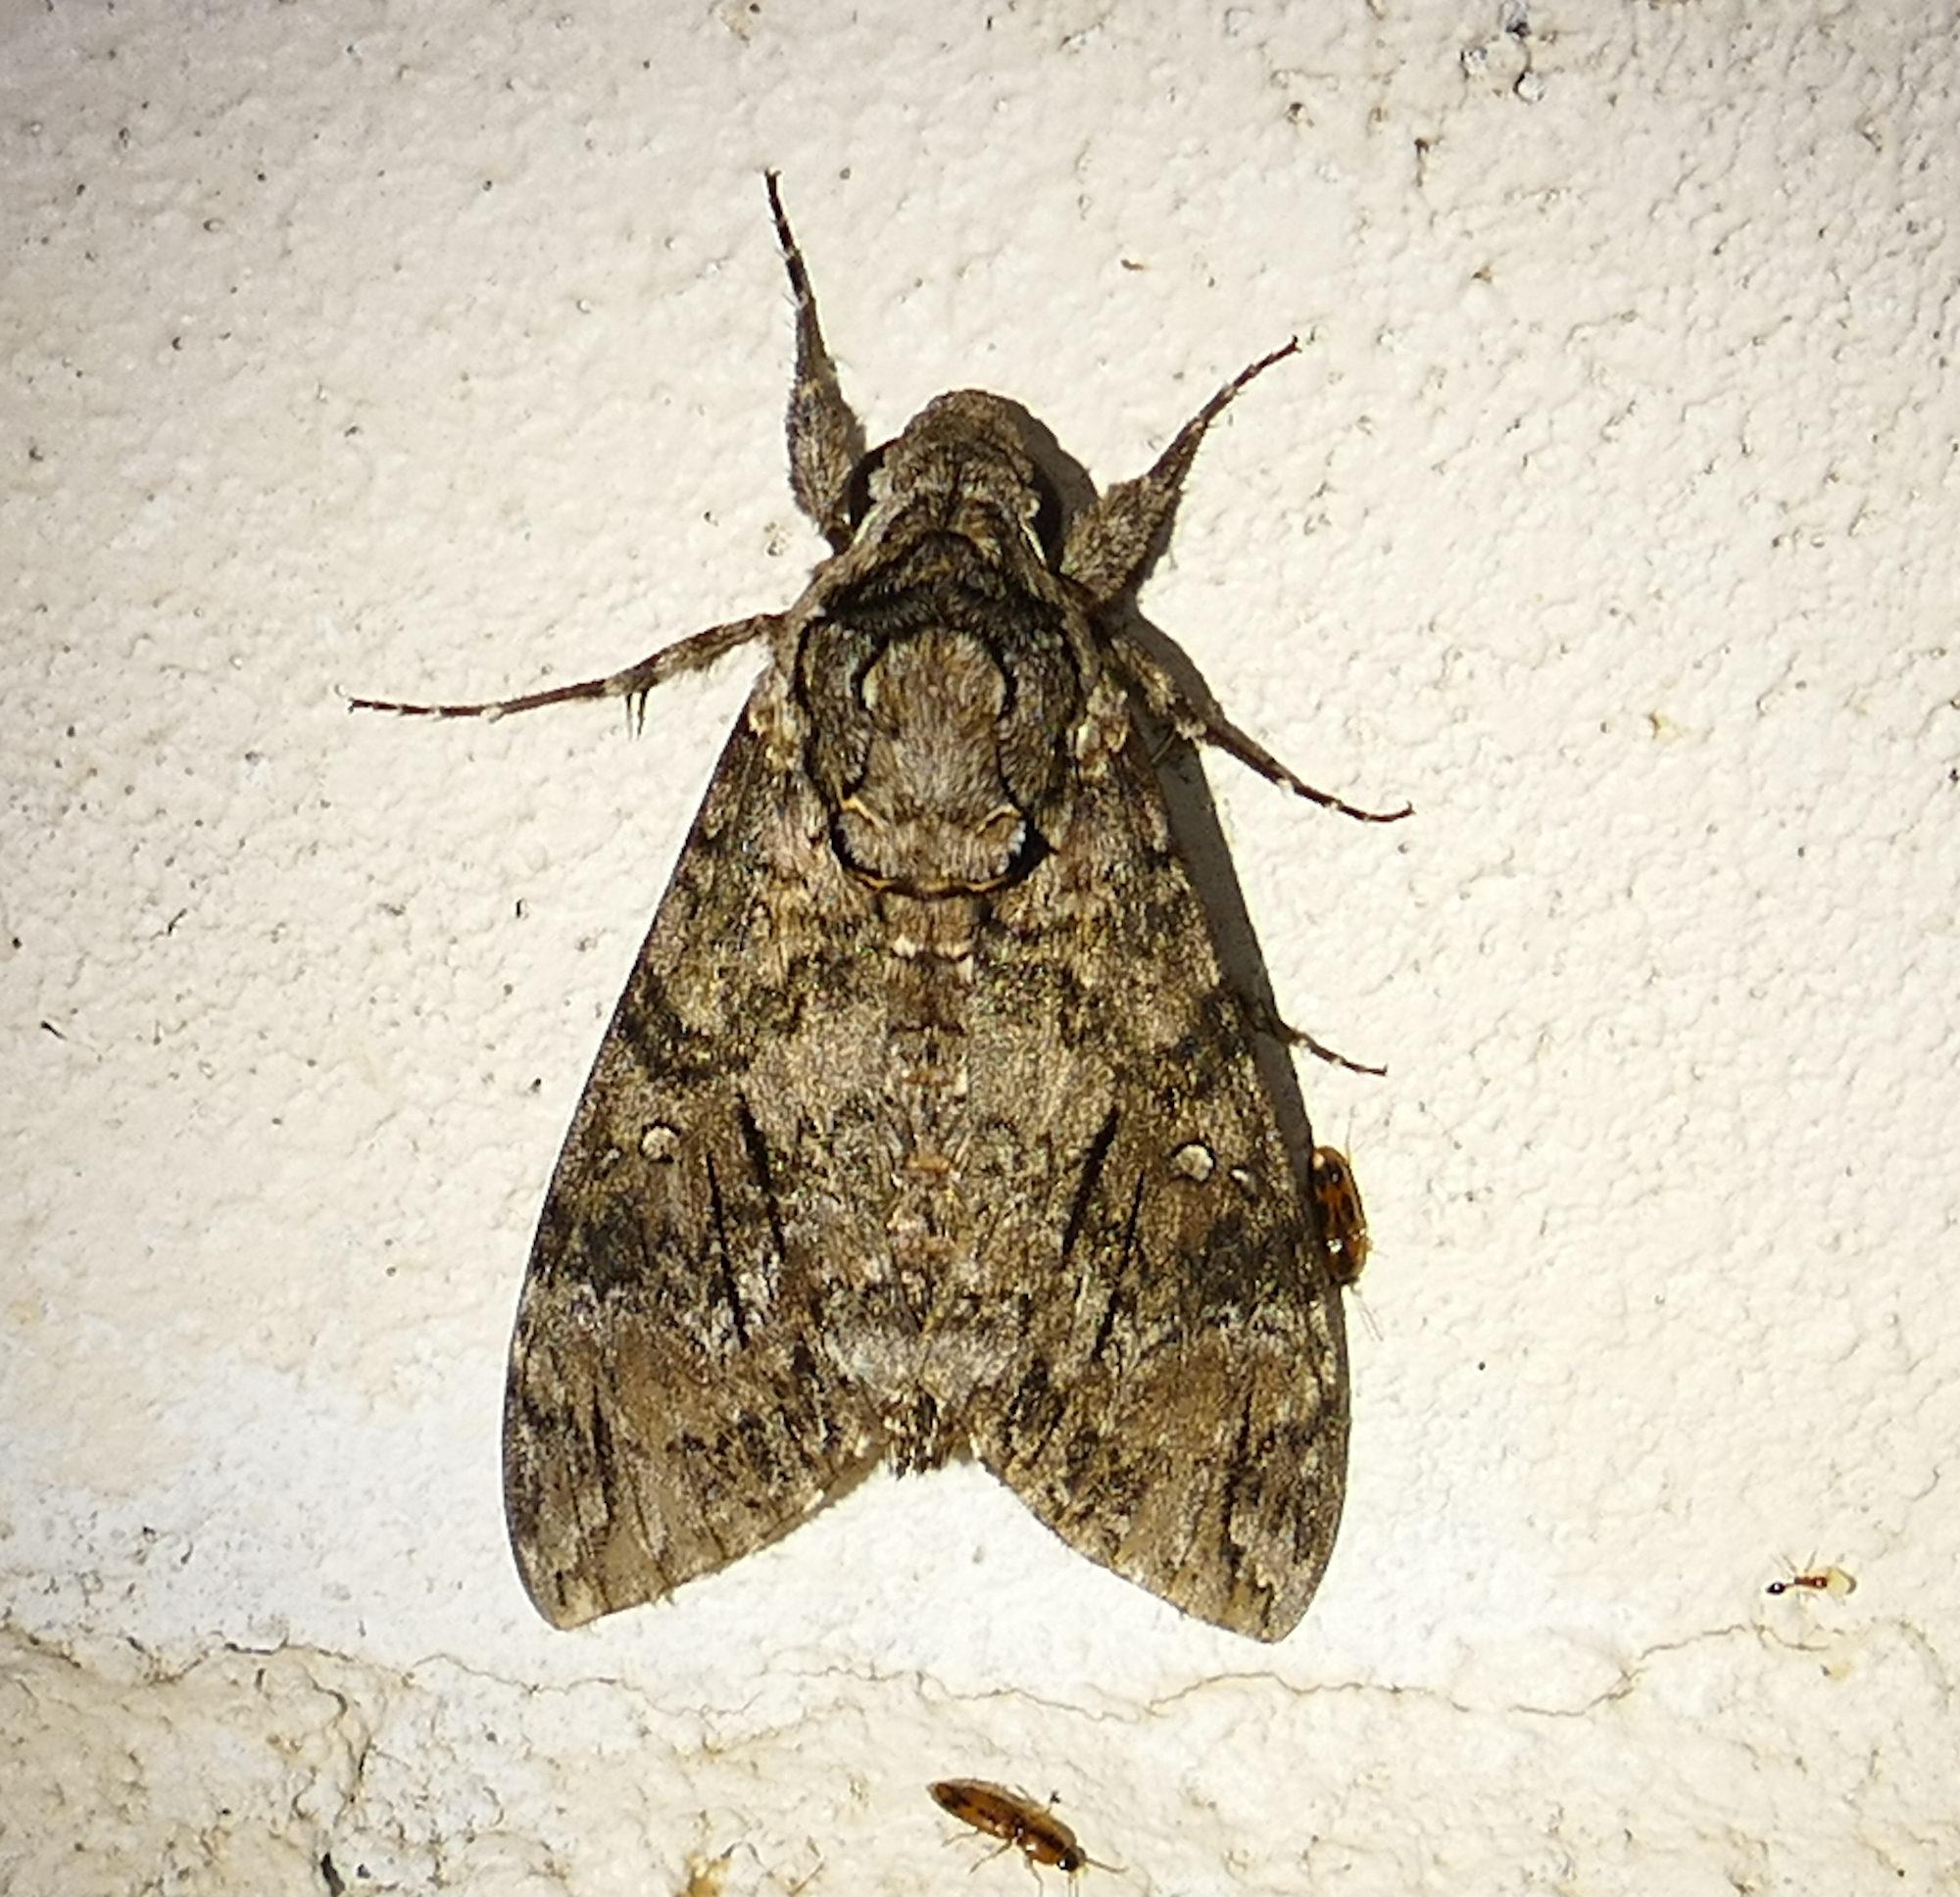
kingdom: Animalia
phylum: Arthropoda
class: Insecta
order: Lepidoptera
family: Sphingidae
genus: Agrius
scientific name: Agrius cingulata
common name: Pink-spotted hawkmoth
